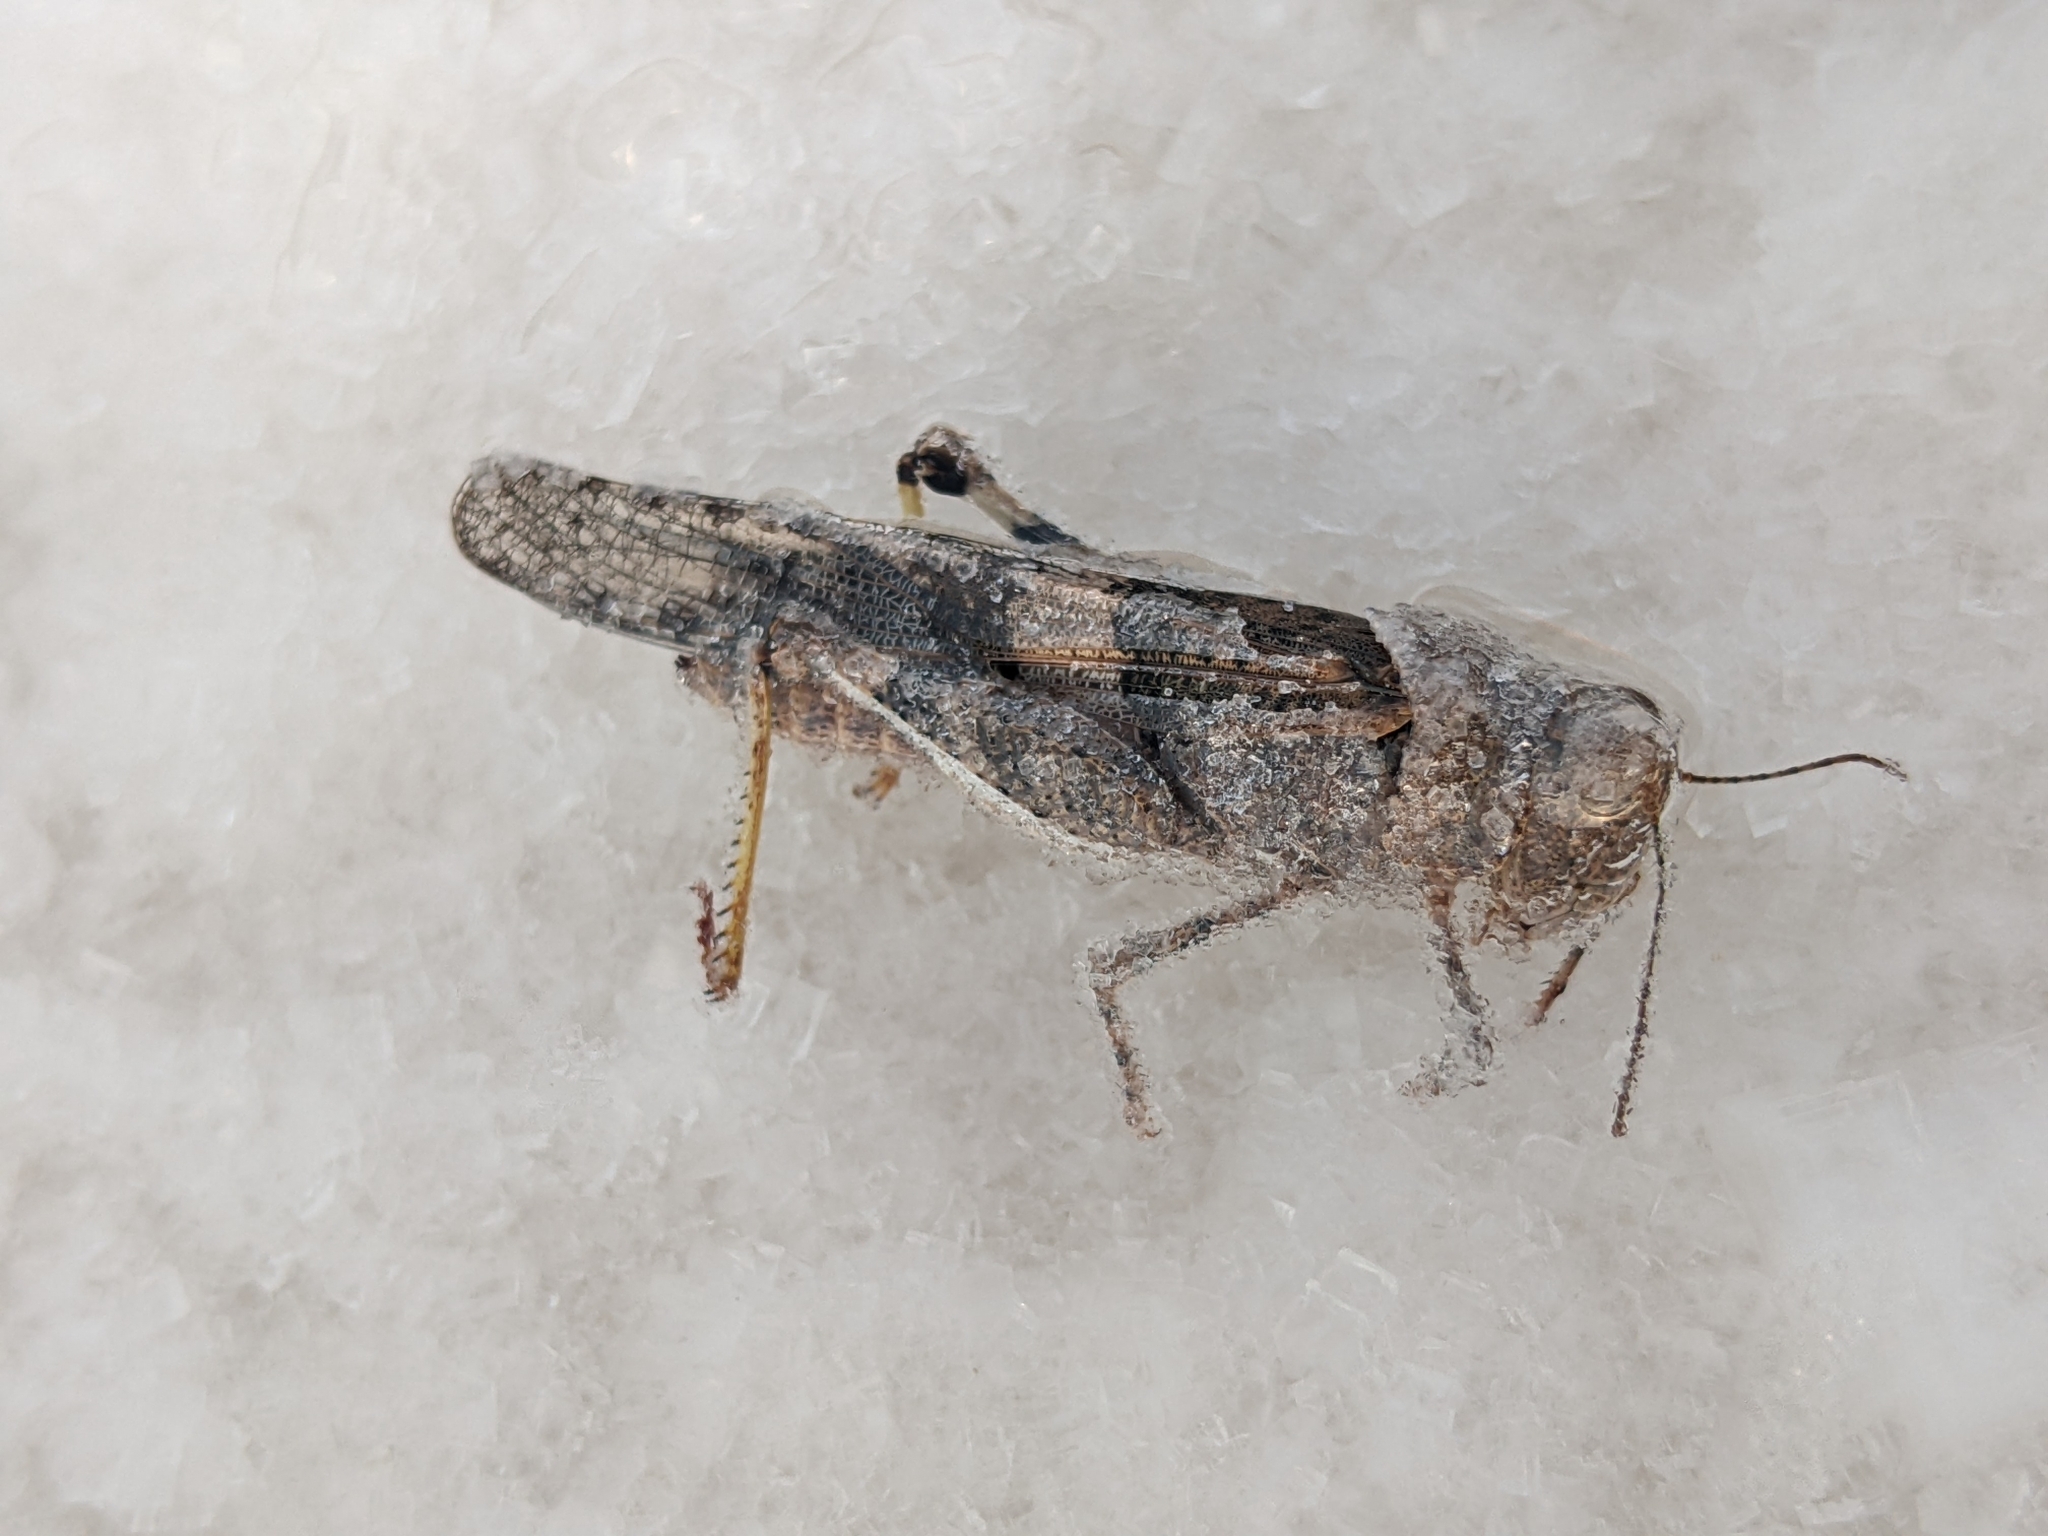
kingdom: Animalia
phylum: Arthropoda
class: Insecta
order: Orthoptera
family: Acrididae
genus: Trimerotropis
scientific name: Trimerotropis pallidipennis
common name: Pallid-winged grasshopper
